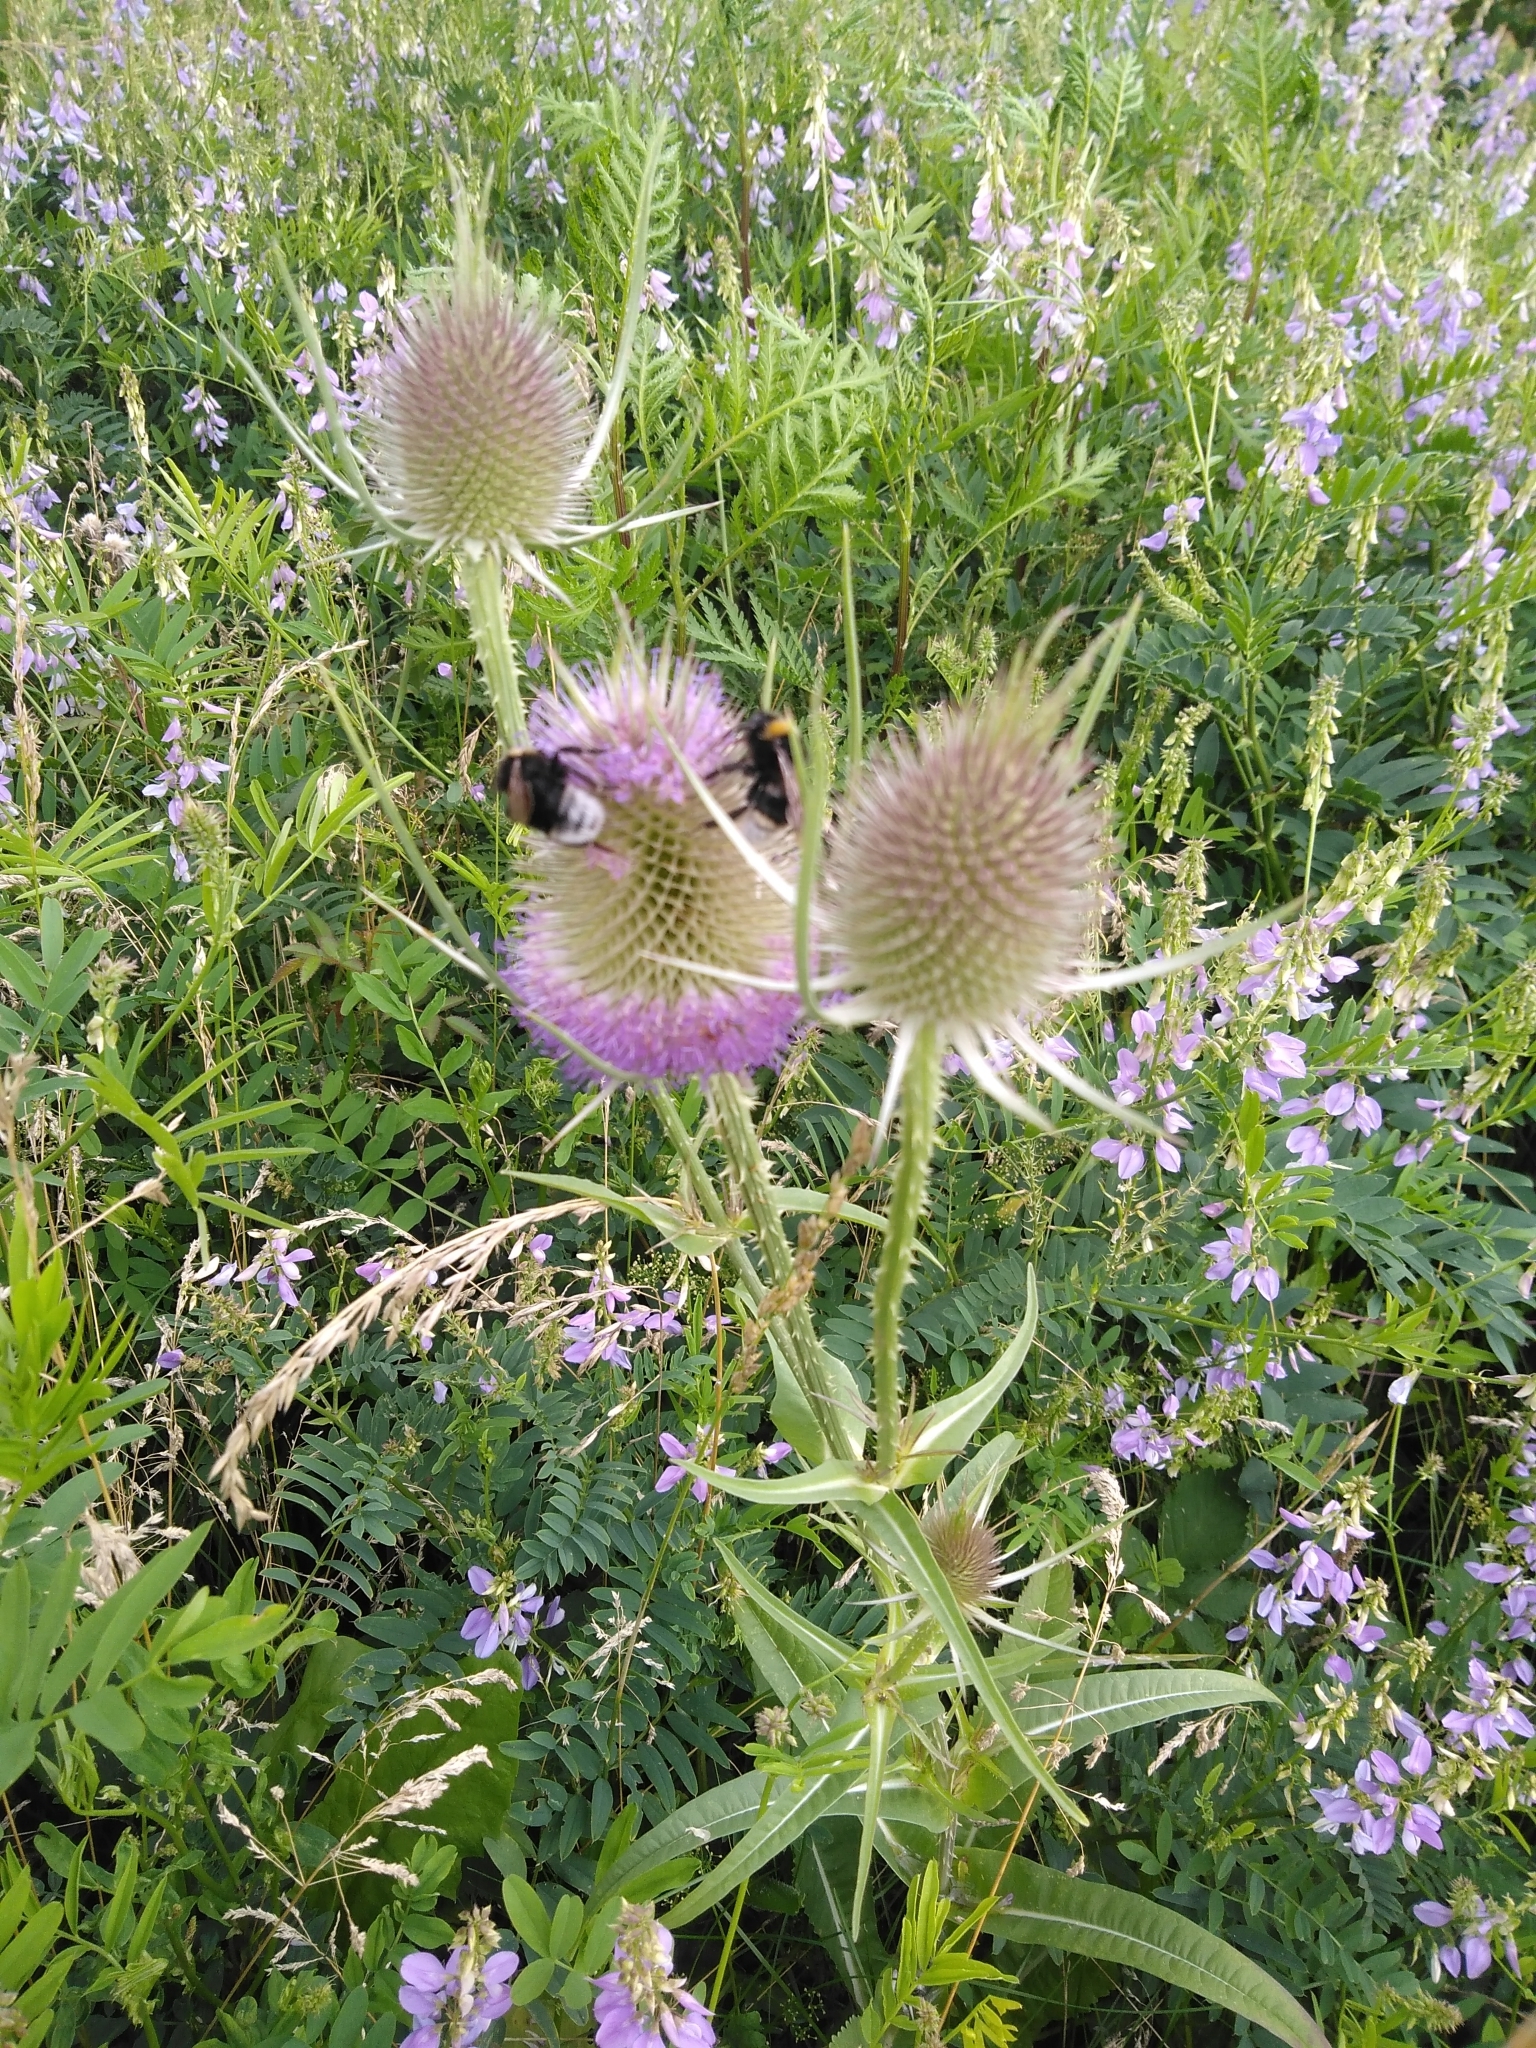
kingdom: Plantae
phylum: Tracheophyta
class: Magnoliopsida
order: Dipsacales
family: Caprifoliaceae
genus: Dipsacus
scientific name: Dipsacus fullonum
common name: Teasel
